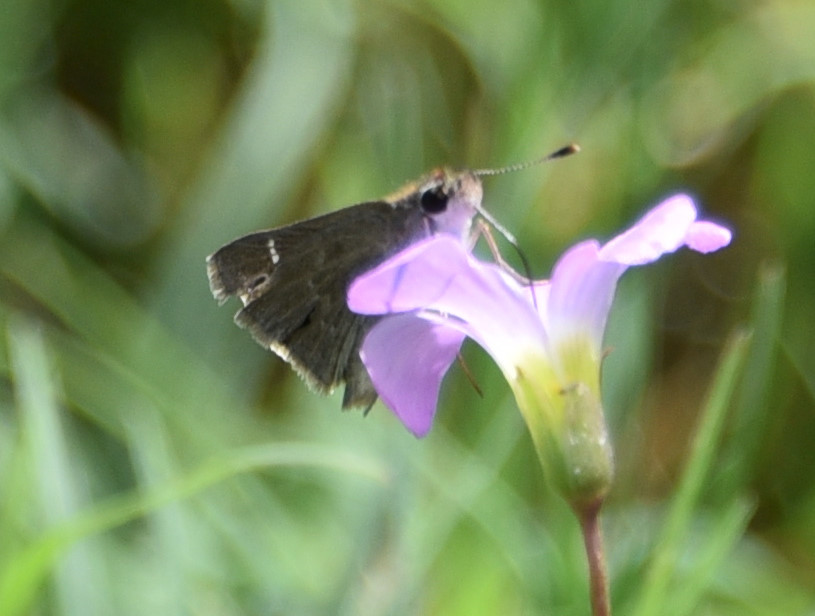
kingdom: Animalia
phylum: Arthropoda
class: Insecta
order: Lepidoptera
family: Hesperiidae
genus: Lerodea
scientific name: Lerodea eufala
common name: Eufala skipper
